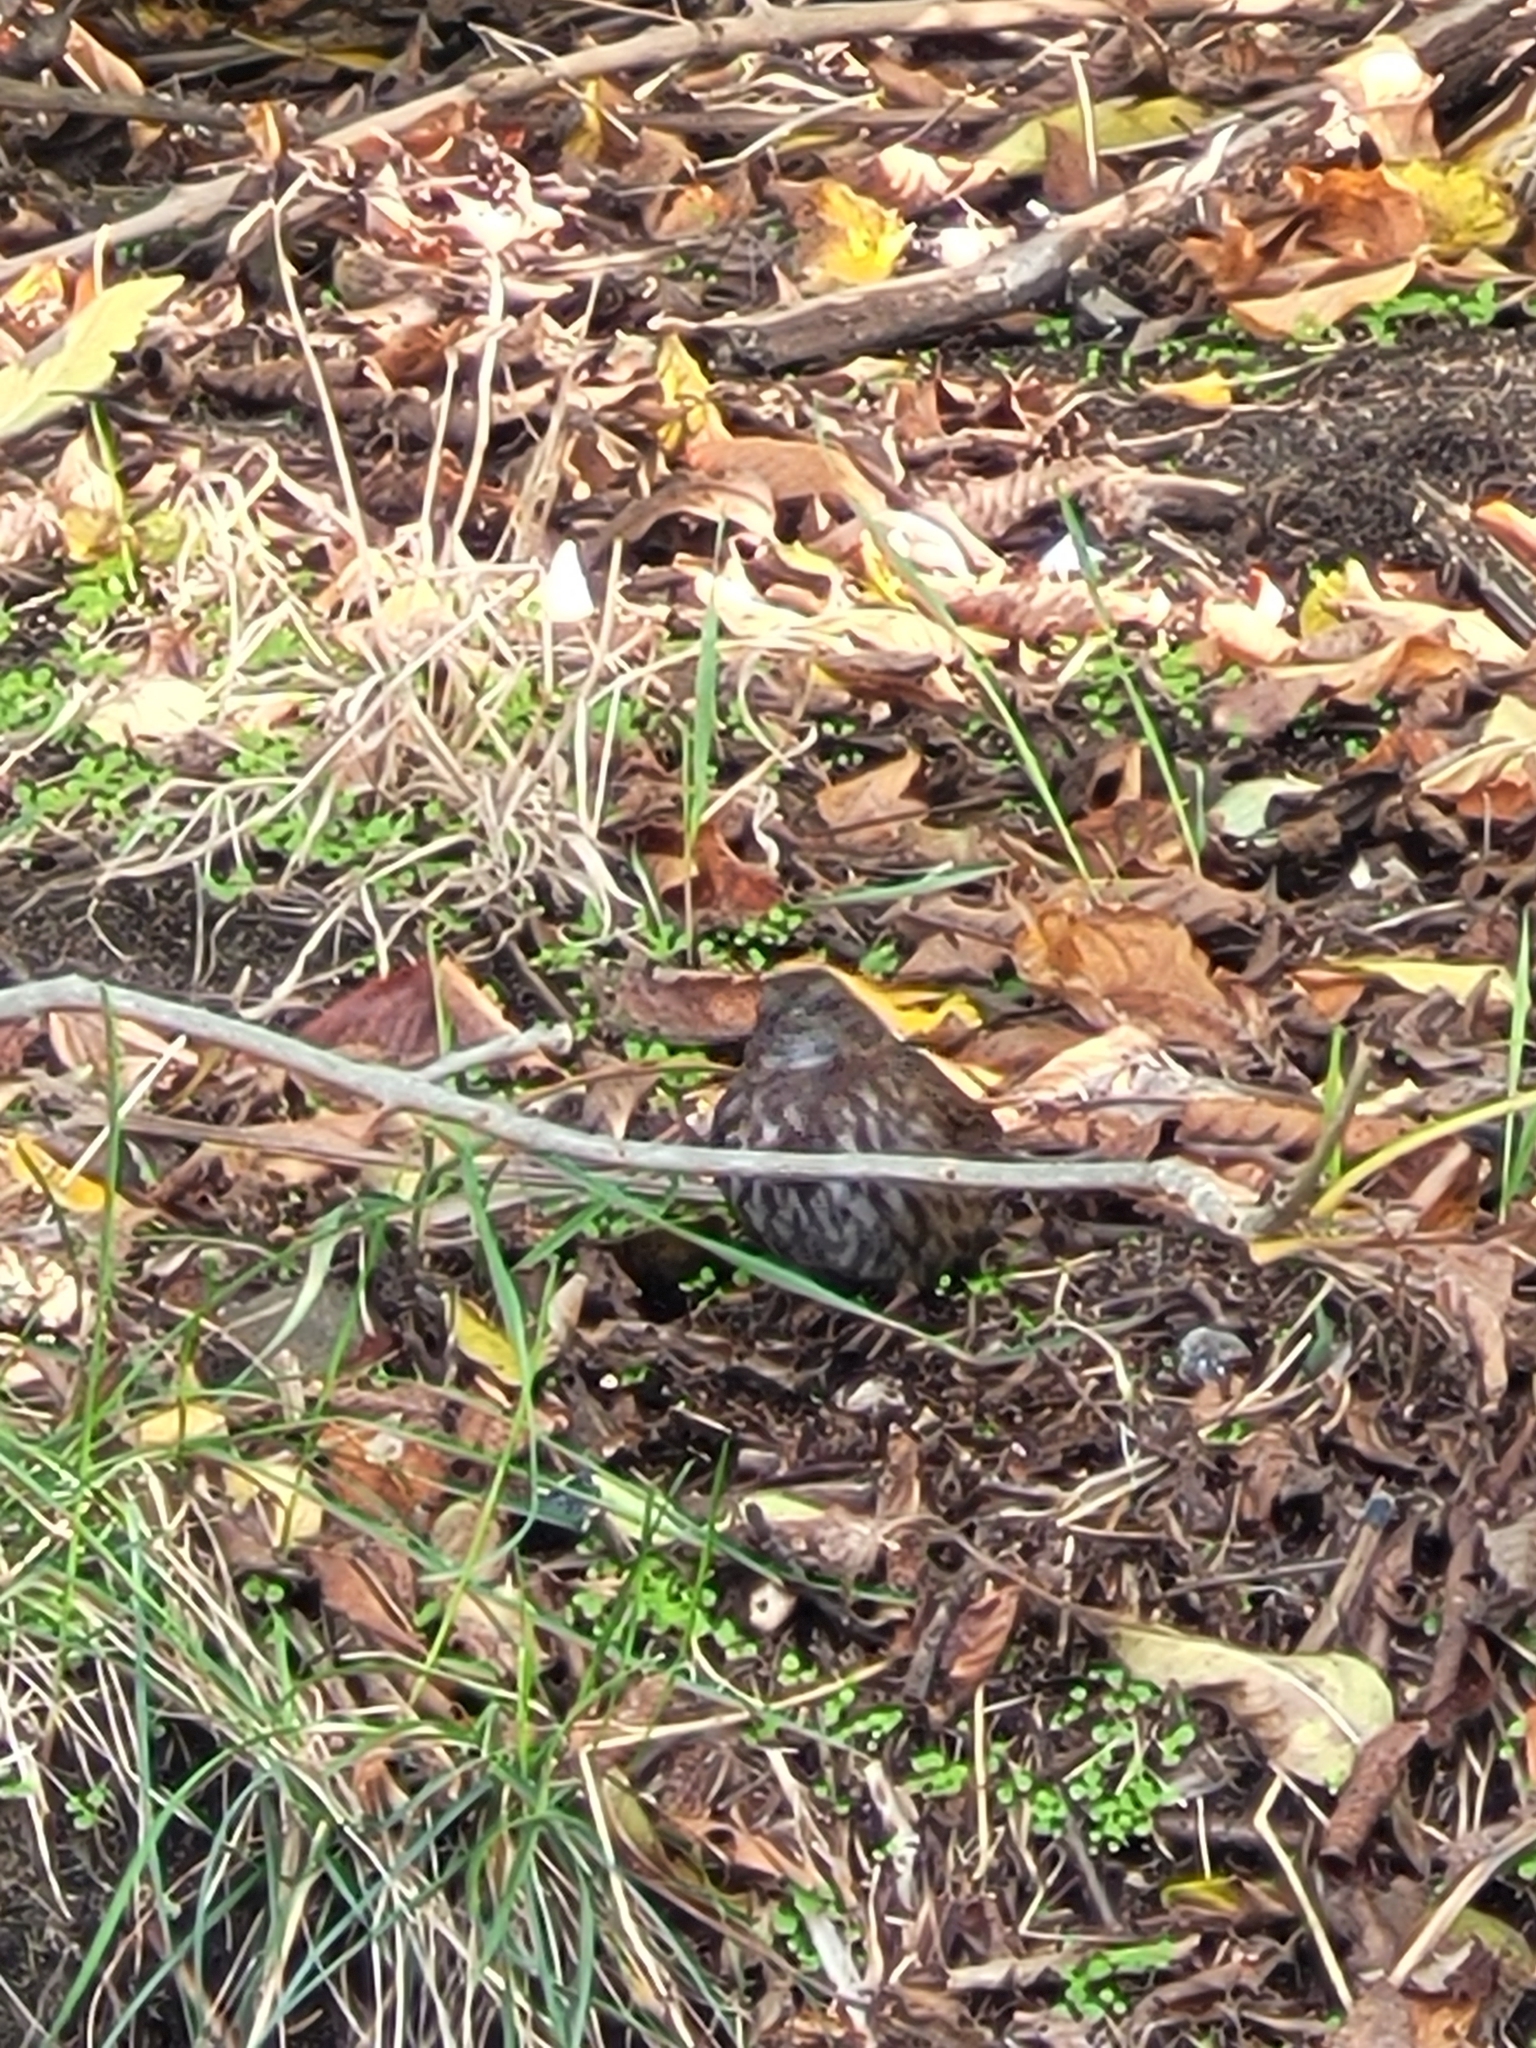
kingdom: Animalia
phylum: Chordata
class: Aves
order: Passeriformes
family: Passerellidae
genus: Melospiza
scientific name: Melospiza melodia
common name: Song sparrow
